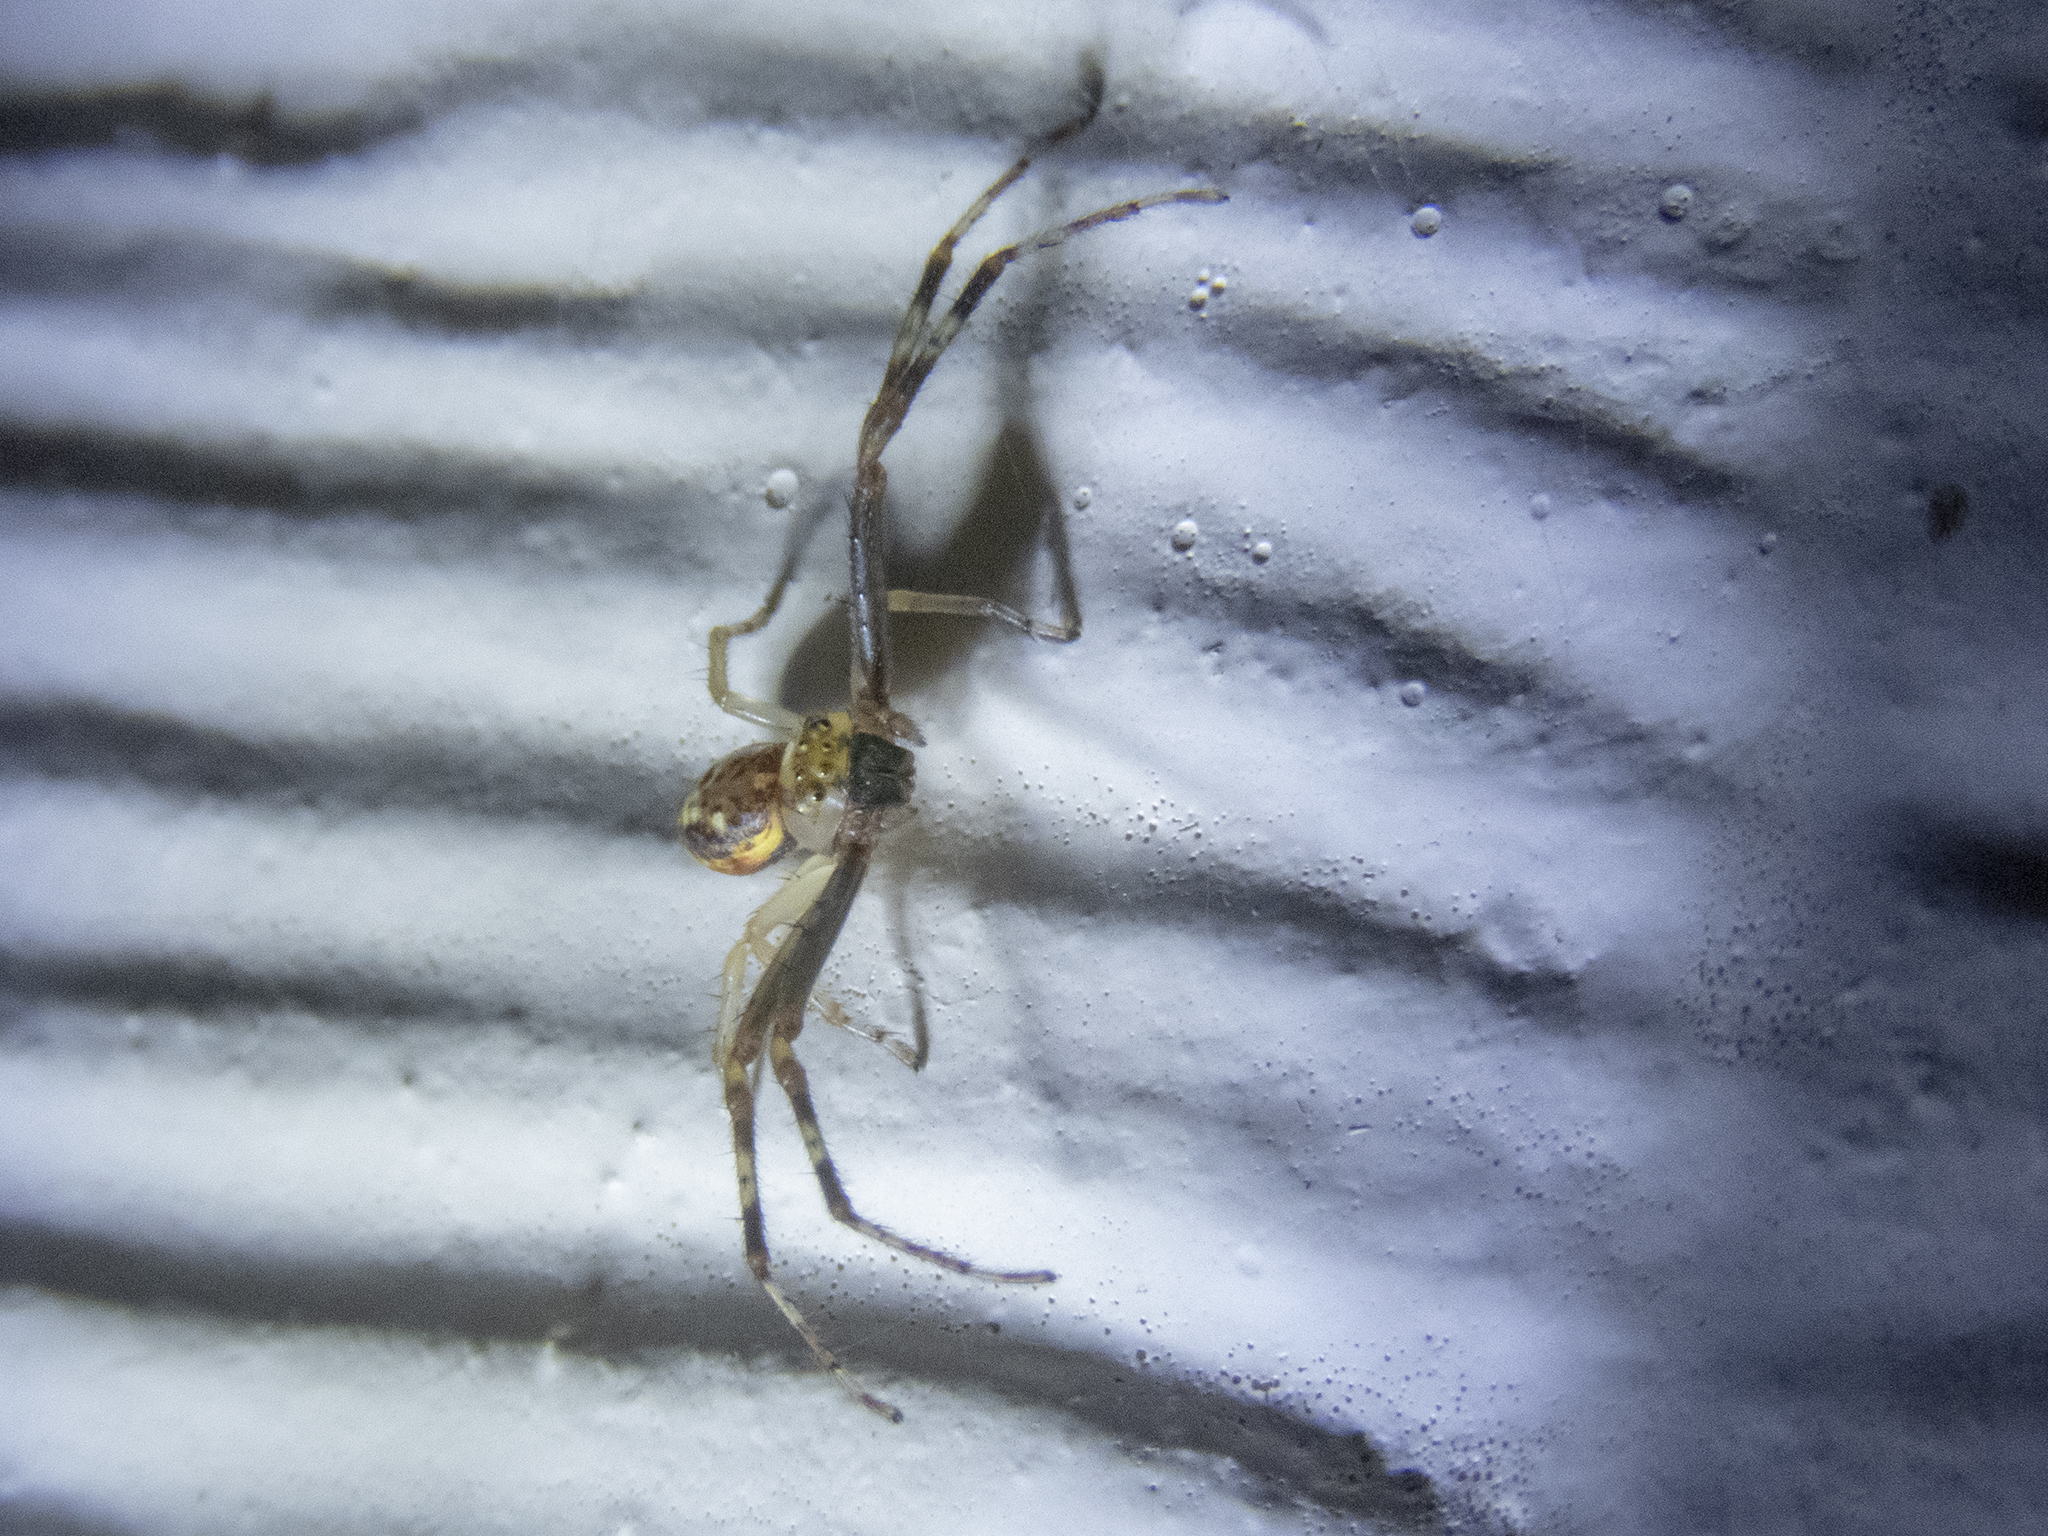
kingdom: Animalia
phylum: Arthropoda
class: Arachnida
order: Araneae
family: Thomisidae
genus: Diaea
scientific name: Diaea ambara
